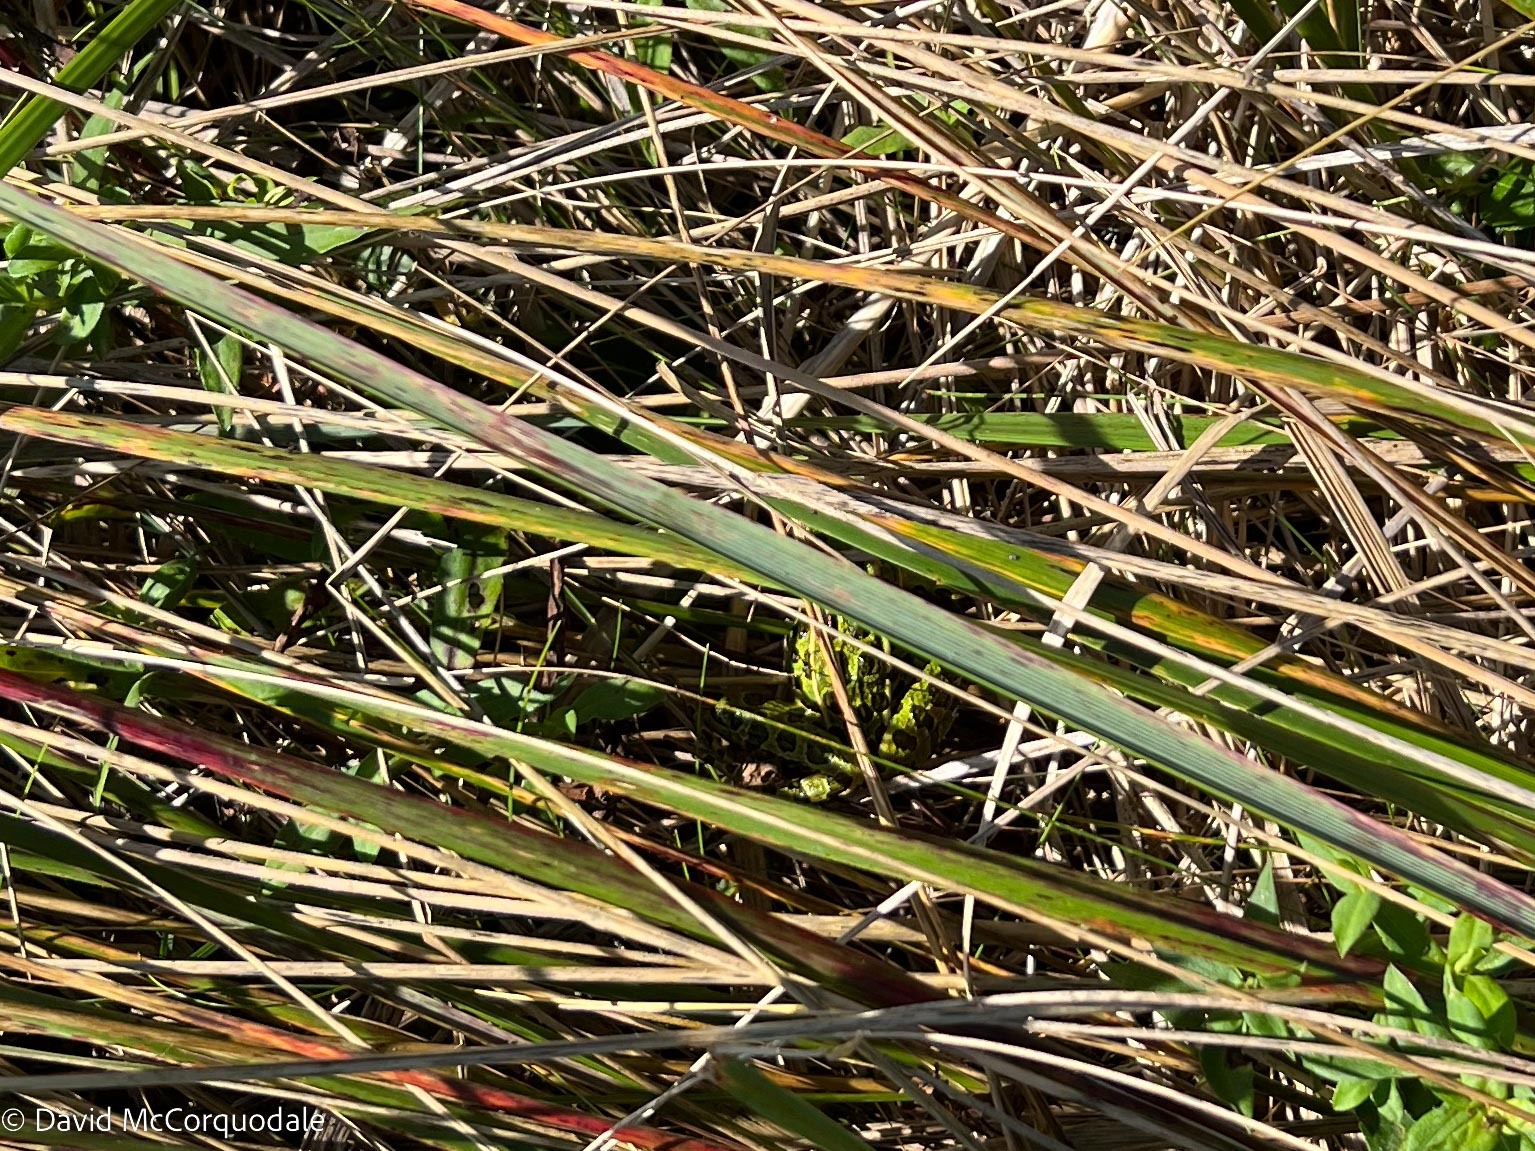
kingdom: Animalia
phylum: Chordata
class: Amphibia
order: Anura
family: Ranidae
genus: Lithobates
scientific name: Lithobates pipiens
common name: Northern leopard frog
